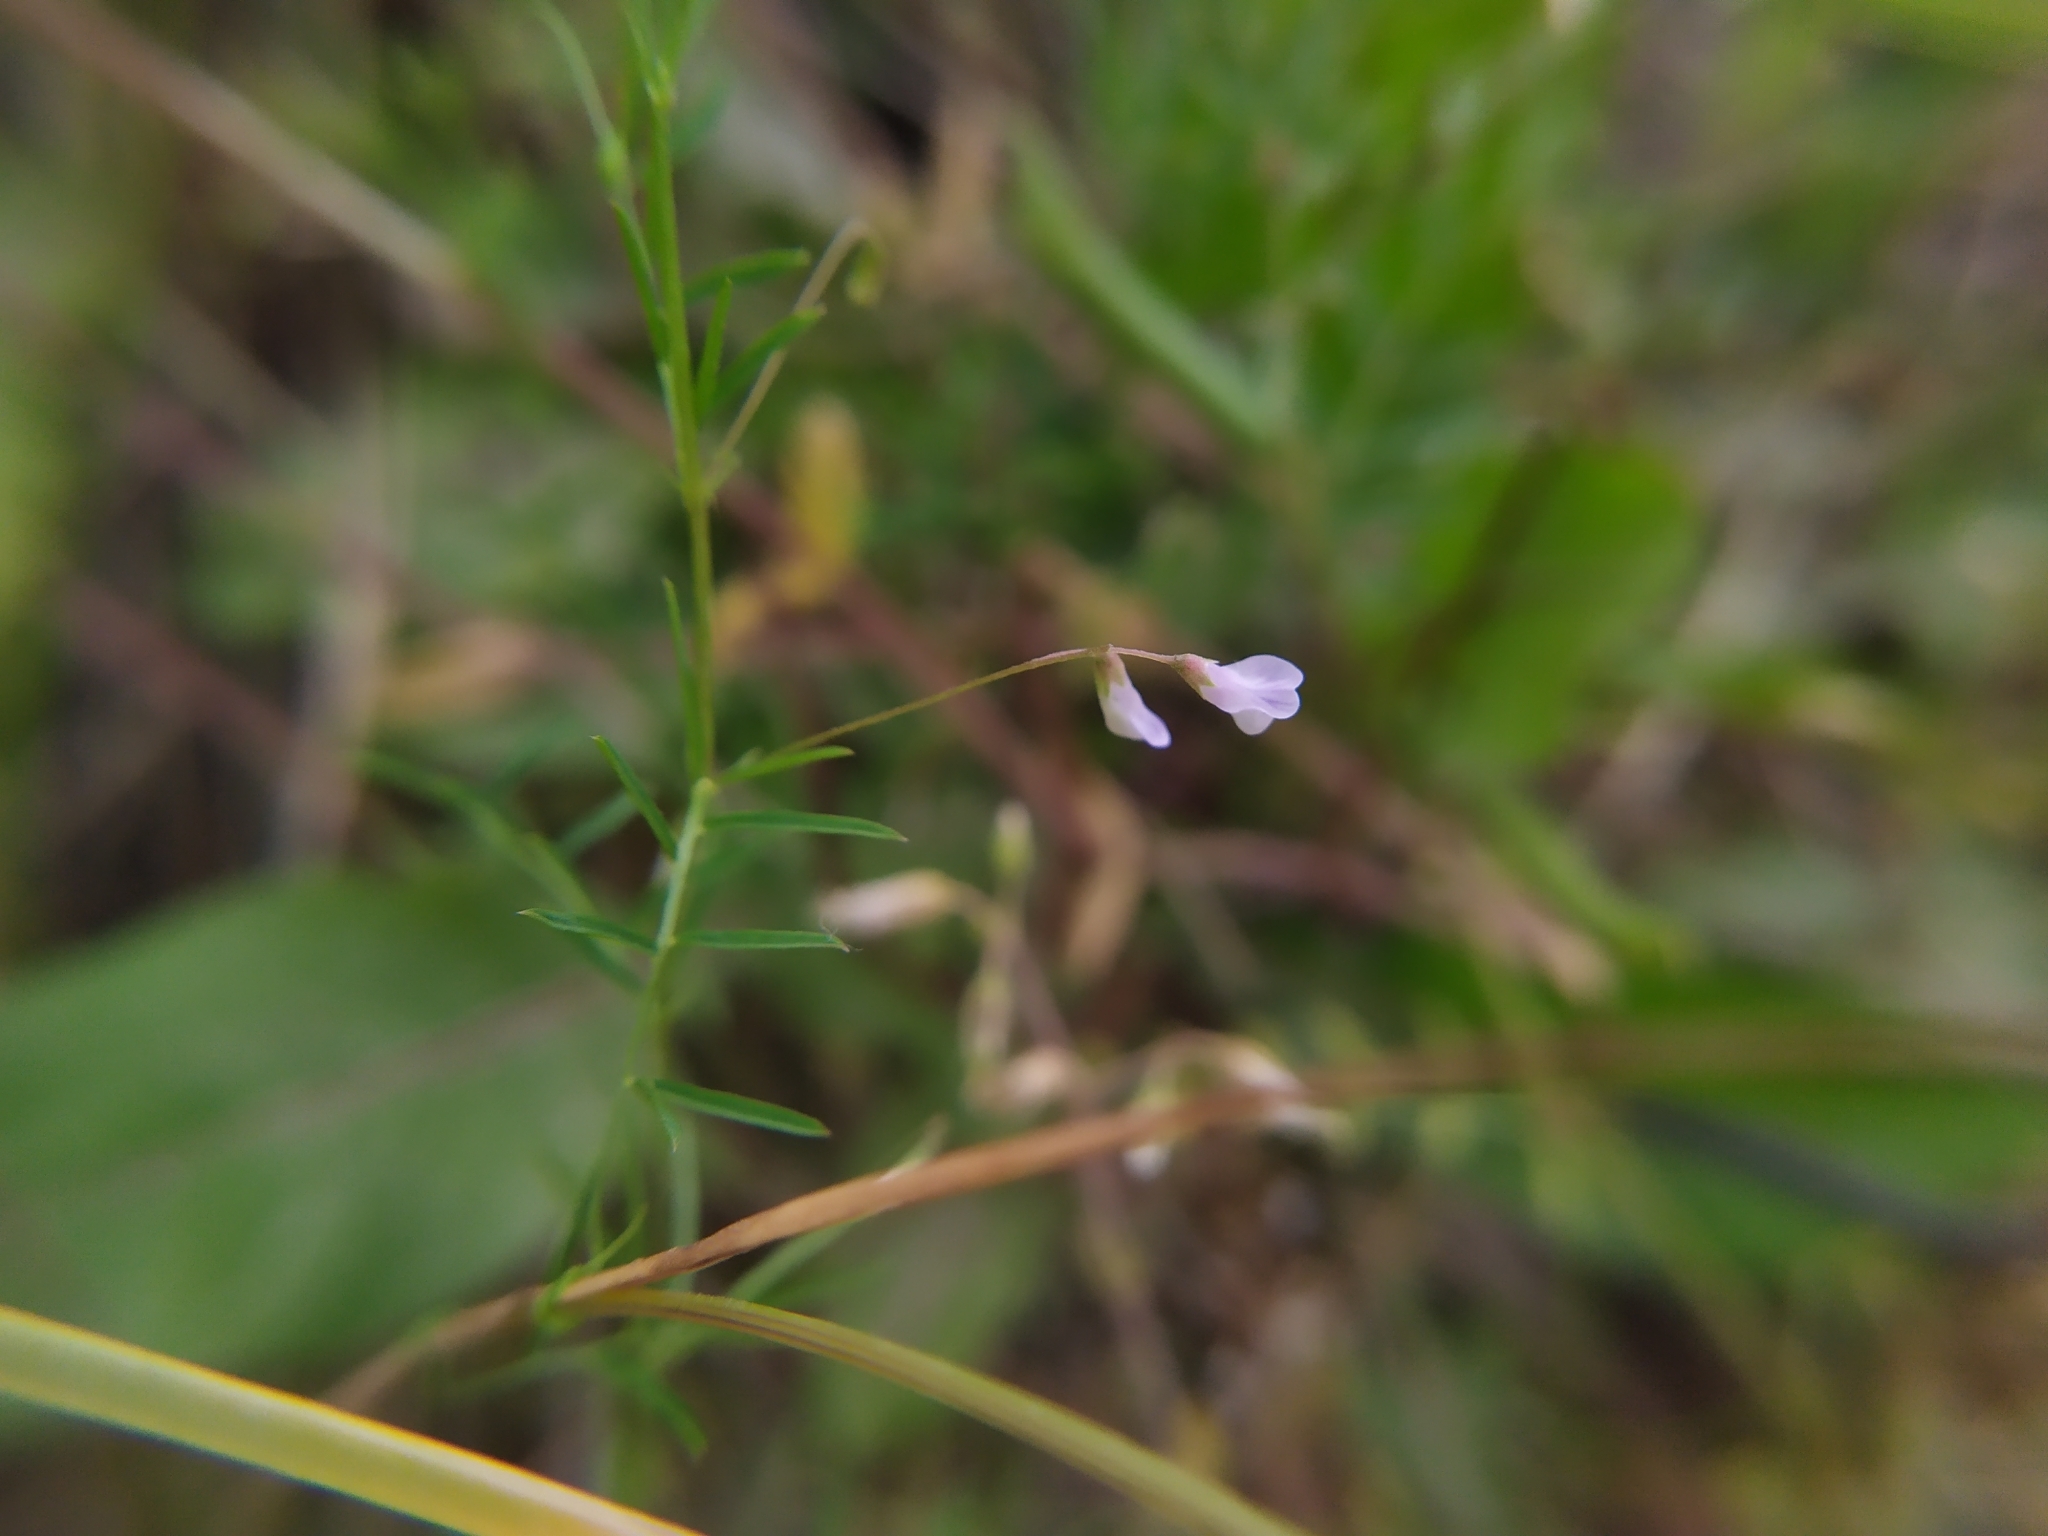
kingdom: Plantae
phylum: Tracheophyta
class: Magnoliopsida
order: Fabales
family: Fabaceae
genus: Vicia
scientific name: Vicia tetrasperma
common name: Smooth tare
